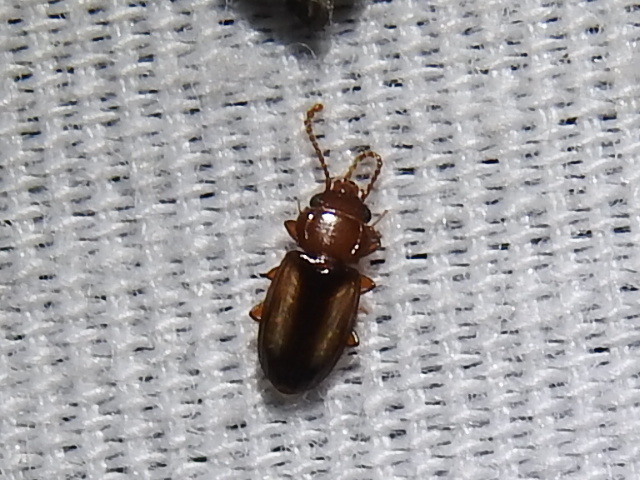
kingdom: Animalia
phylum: Arthropoda
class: Insecta
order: Coleoptera
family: Laemophloeidae
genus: Laemophloeus
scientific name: Laemophloeus terminalis
